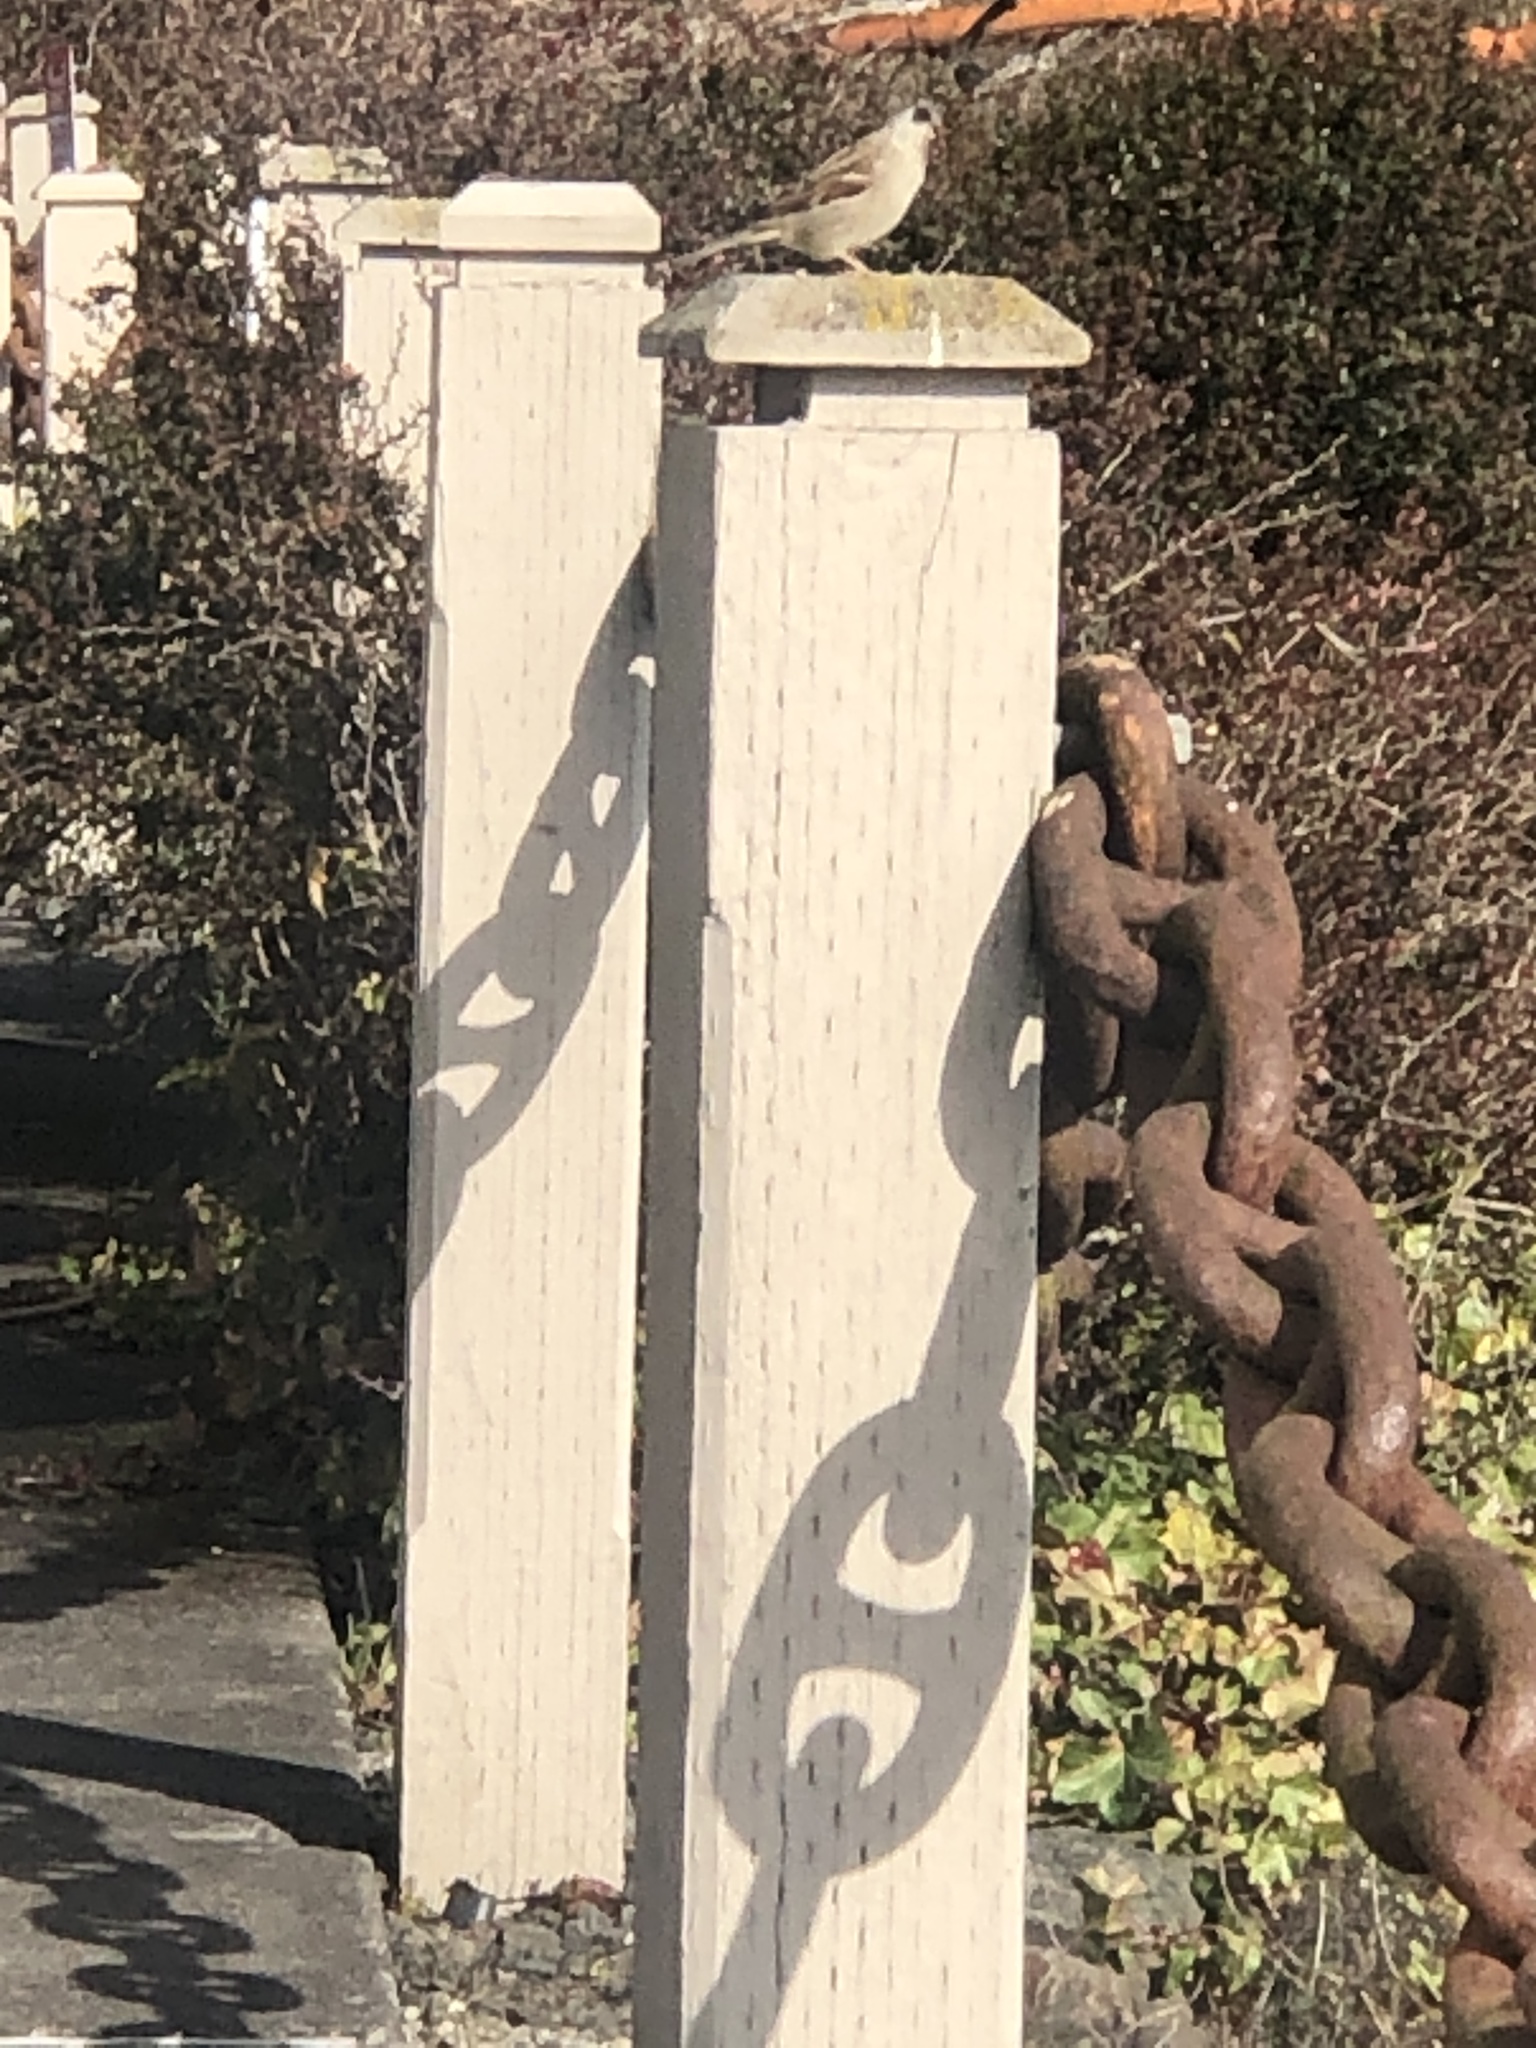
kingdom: Animalia
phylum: Chordata
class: Aves
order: Passeriformes
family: Passeridae
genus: Passer
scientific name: Passer domesticus
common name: House sparrow
